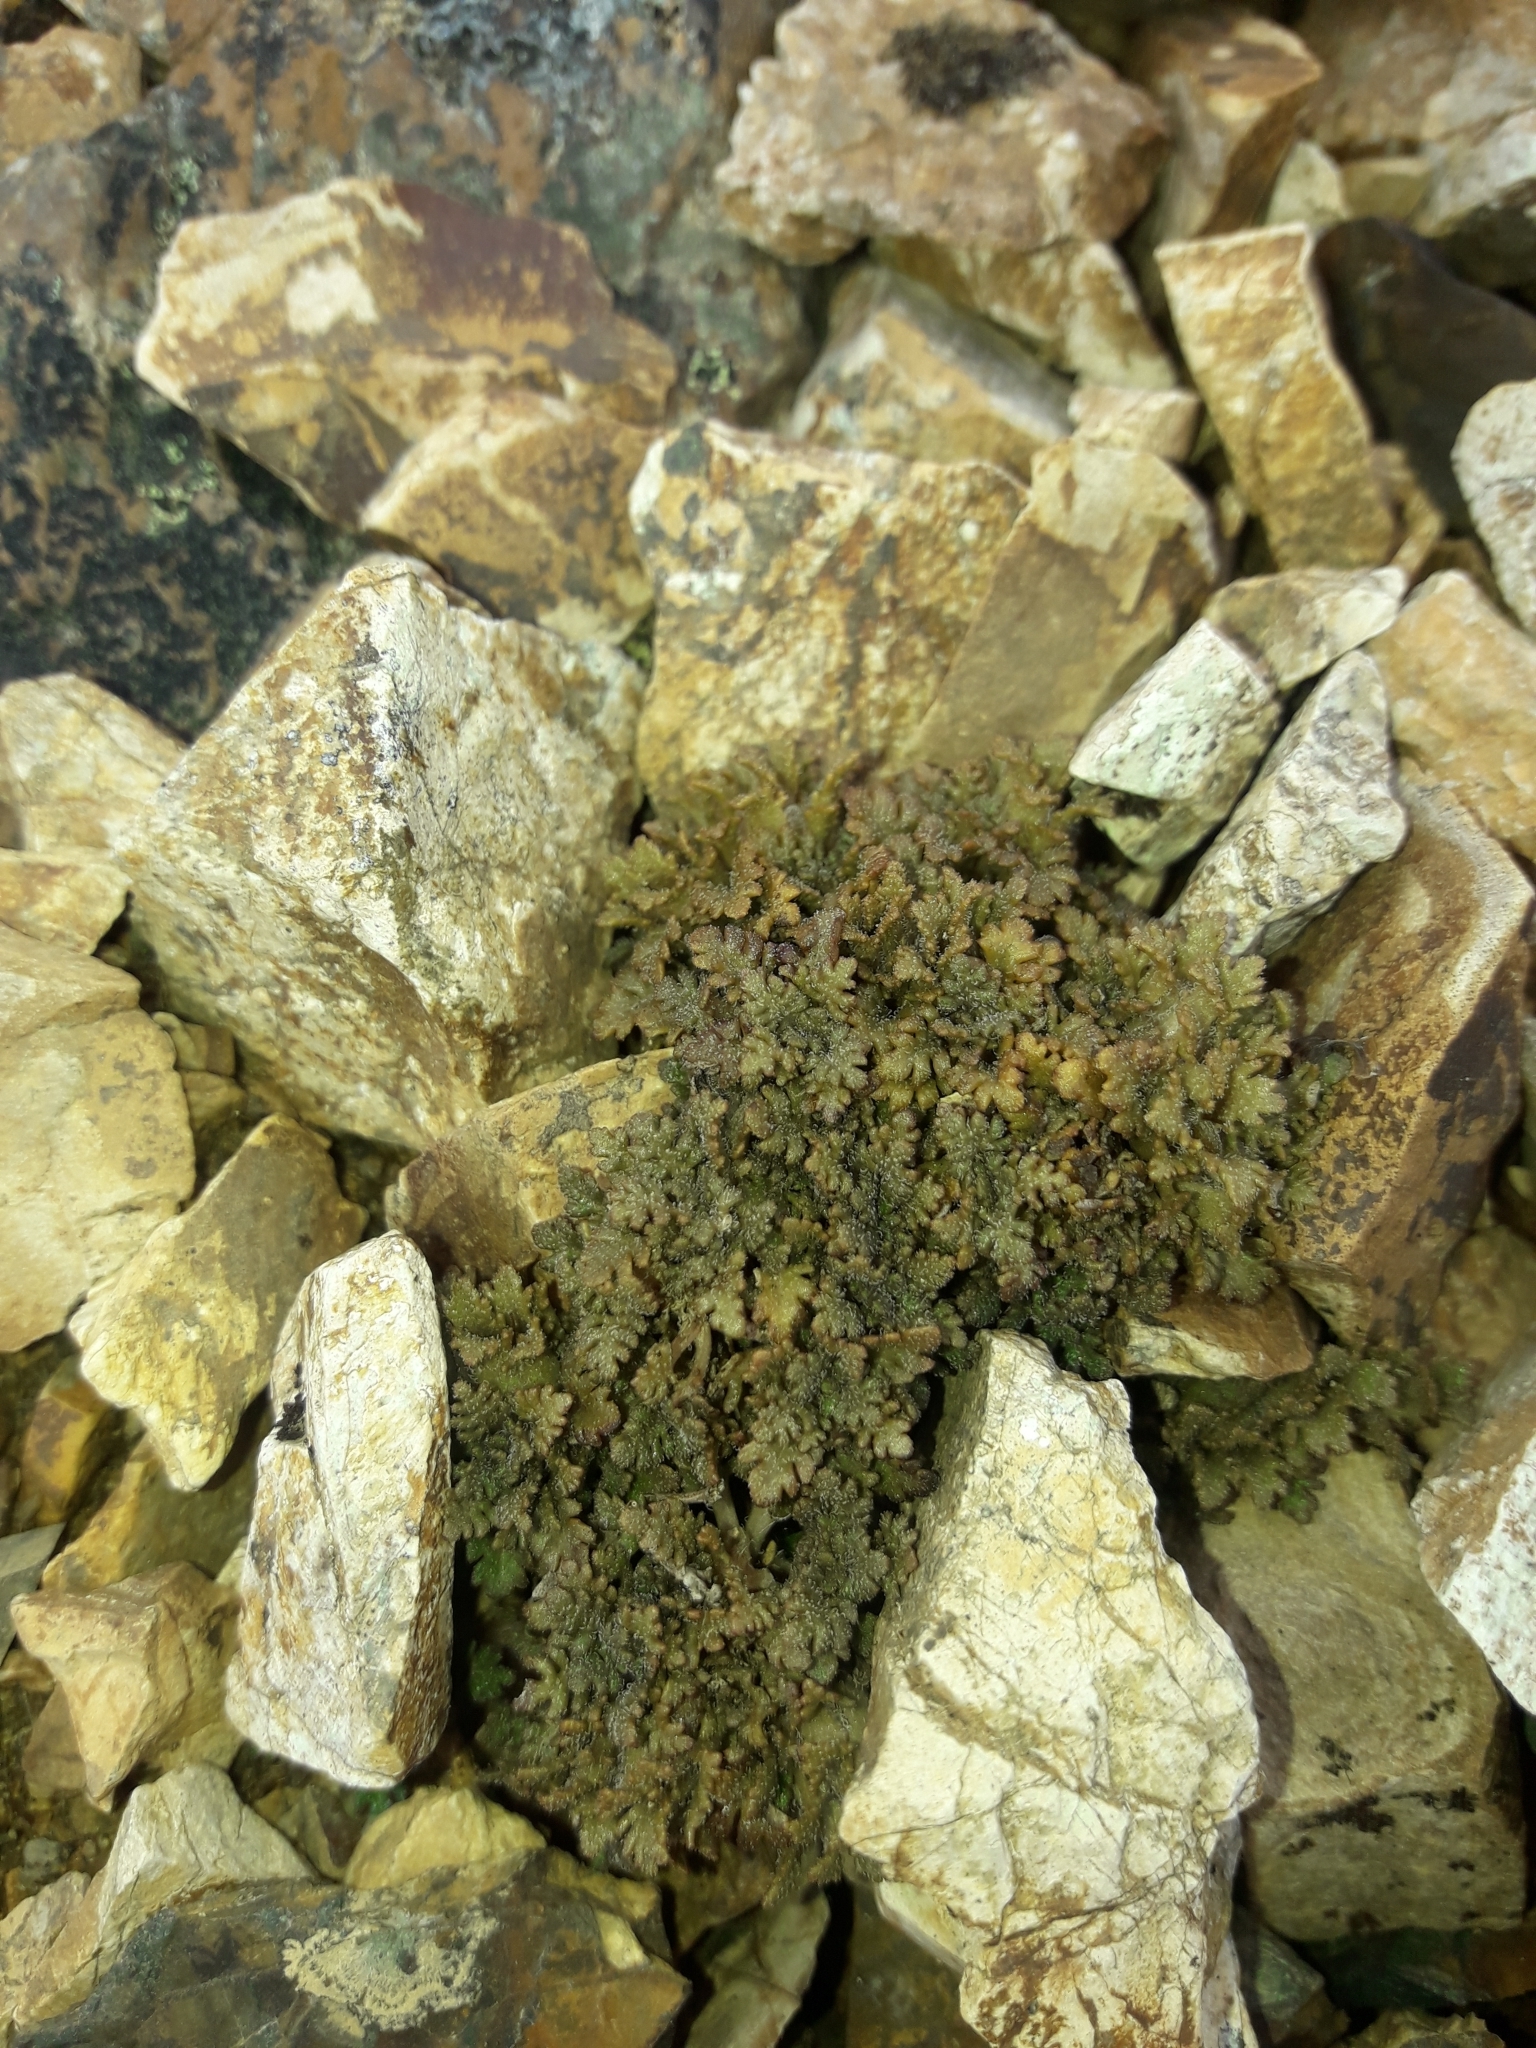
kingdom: Plantae
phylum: Tracheophyta
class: Magnoliopsida
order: Lamiales
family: Plantaginaceae
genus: Veronica
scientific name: Veronica cheesemanii
